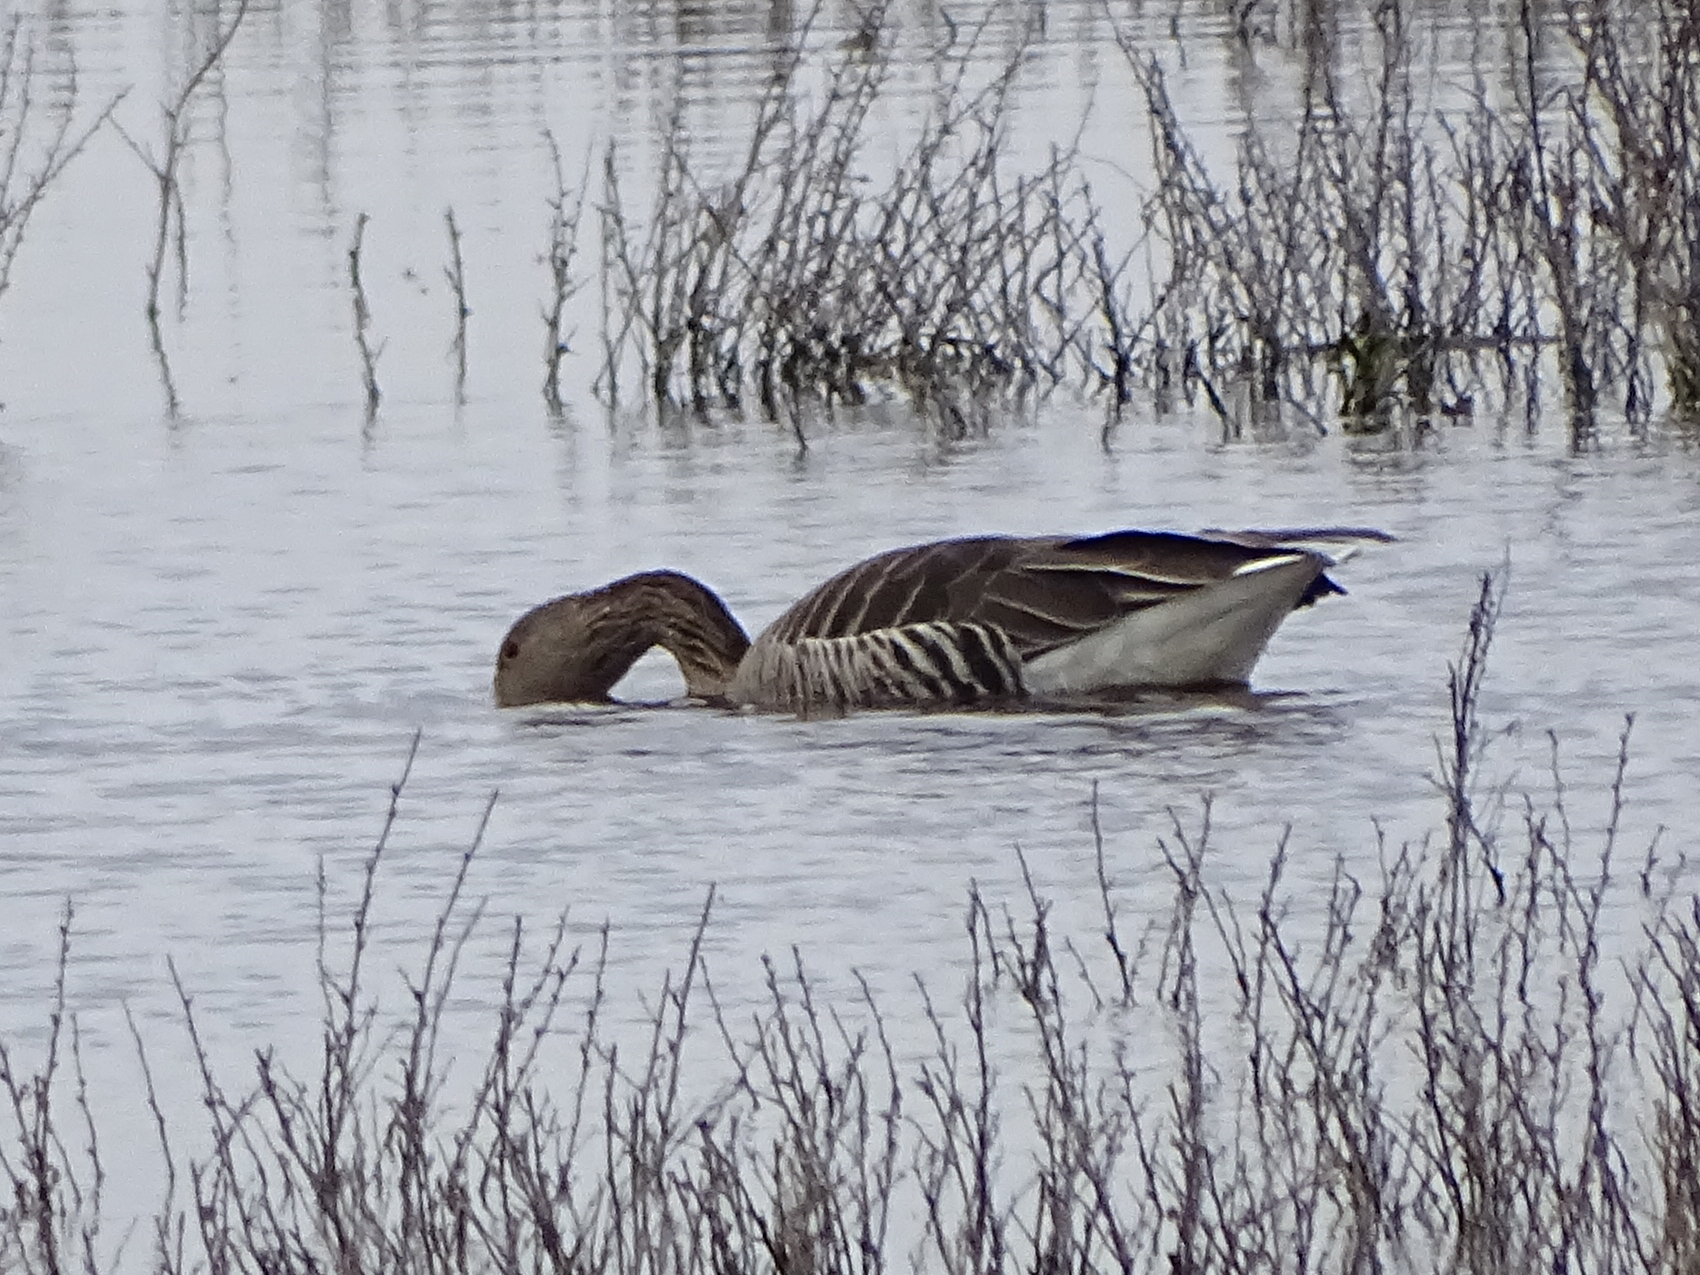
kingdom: Animalia
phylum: Chordata
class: Aves
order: Anseriformes
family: Anatidae
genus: Anser
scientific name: Anser anser
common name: Greylag goose
